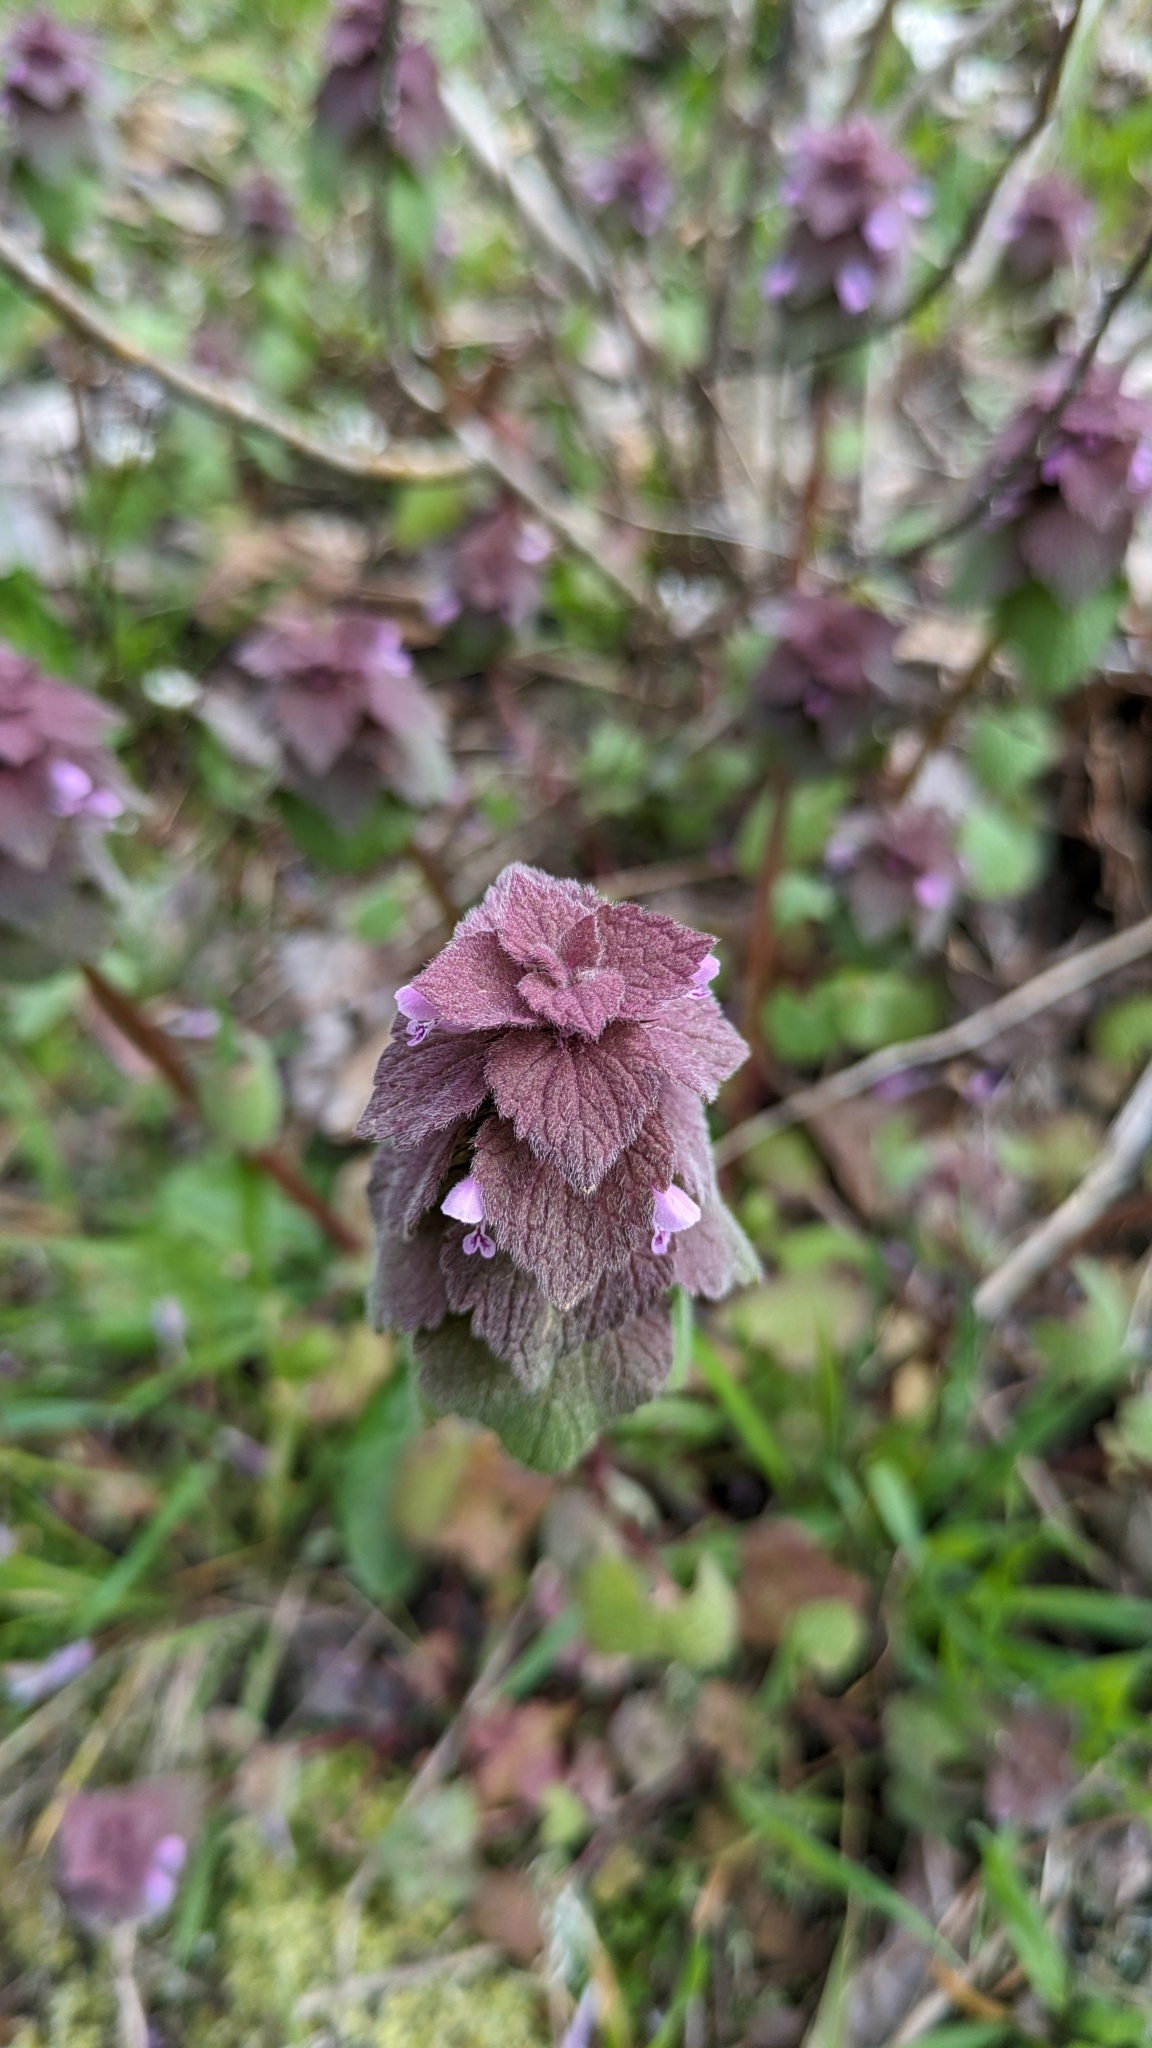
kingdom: Plantae
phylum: Tracheophyta
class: Magnoliopsida
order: Lamiales
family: Lamiaceae
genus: Lamium
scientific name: Lamium purpureum
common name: Red dead-nettle
